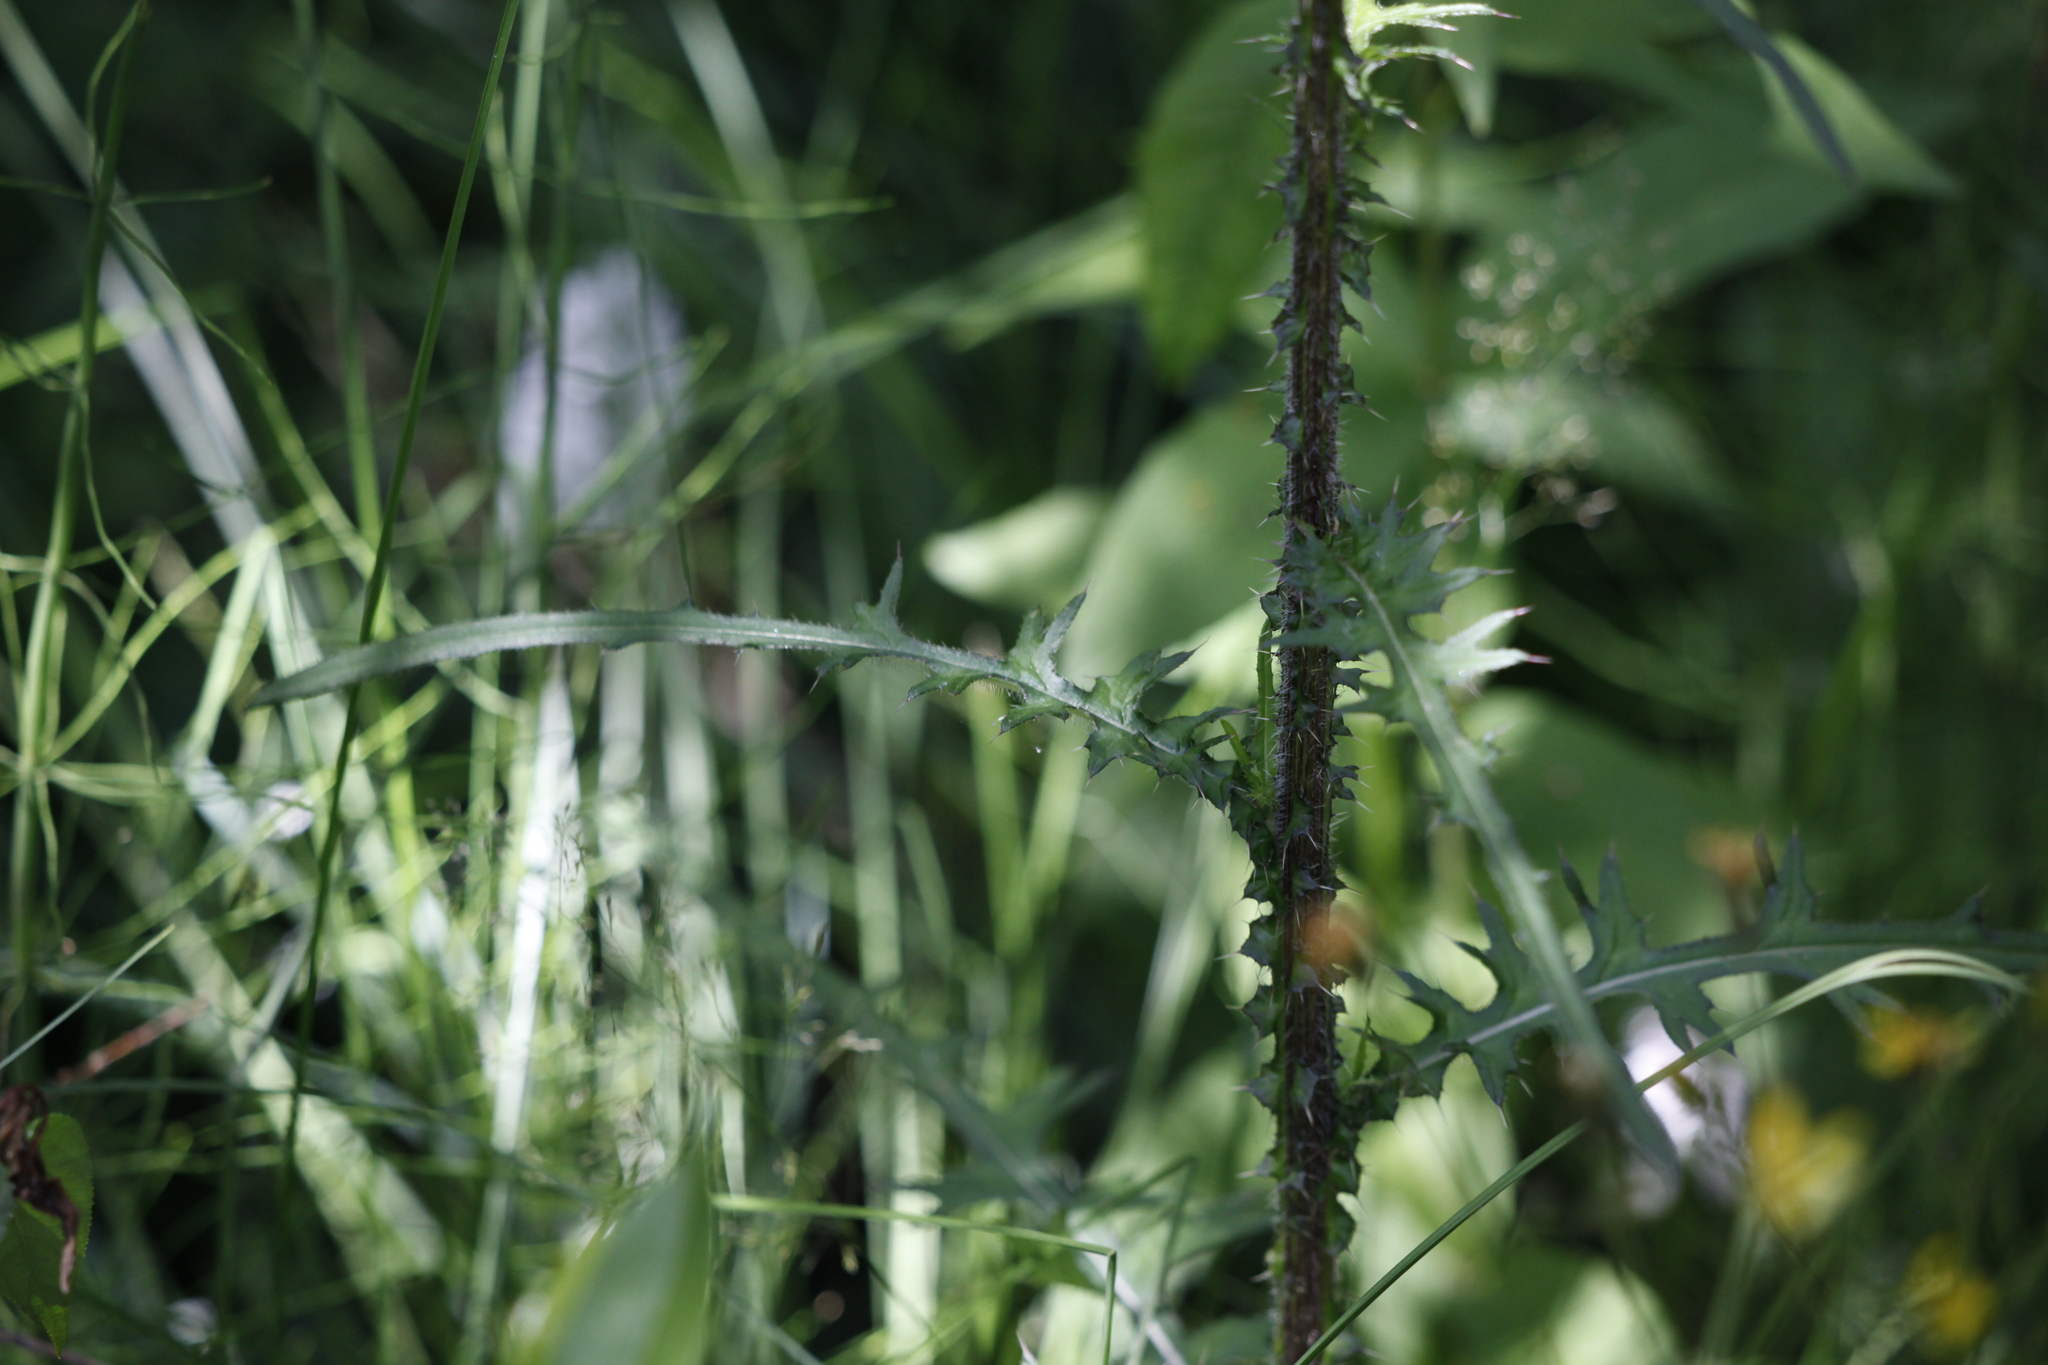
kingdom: Plantae
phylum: Tracheophyta
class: Magnoliopsida
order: Asterales
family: Asteraceae
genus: Cirsium
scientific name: Cirsium palustre
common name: Marsh thistle
